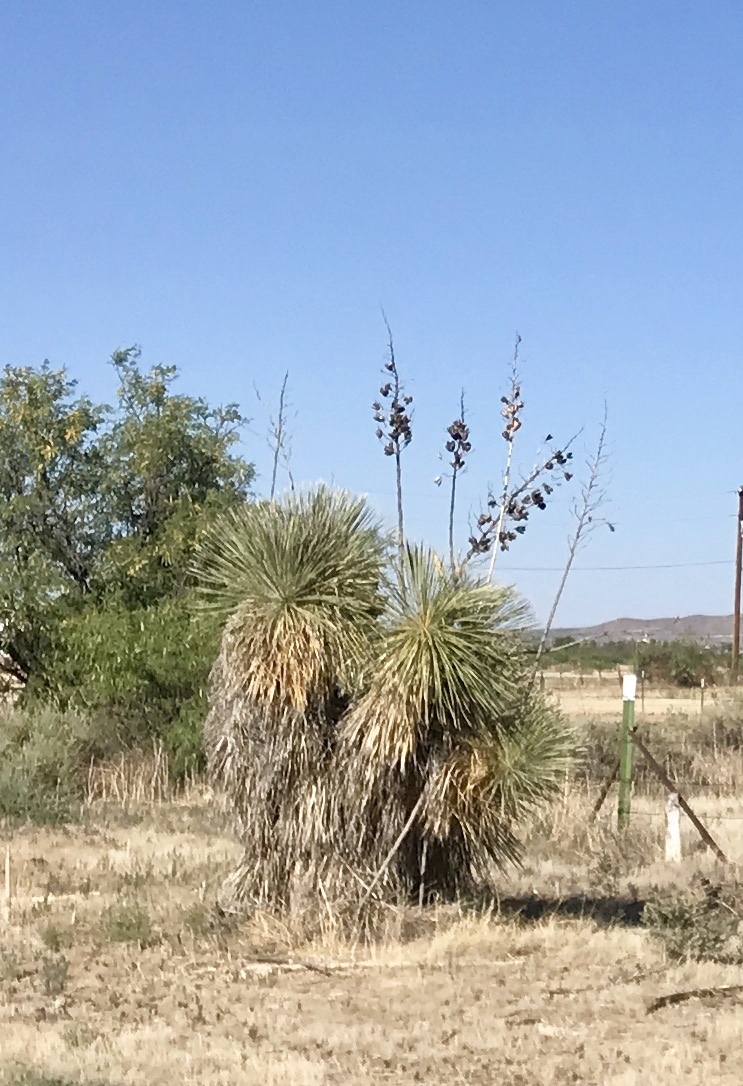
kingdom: Plantae
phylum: Tracheophyta
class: Liliopsida
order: Asparagales
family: Asparagaceae
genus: Yucca
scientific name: Yucca elata
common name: Palmella
